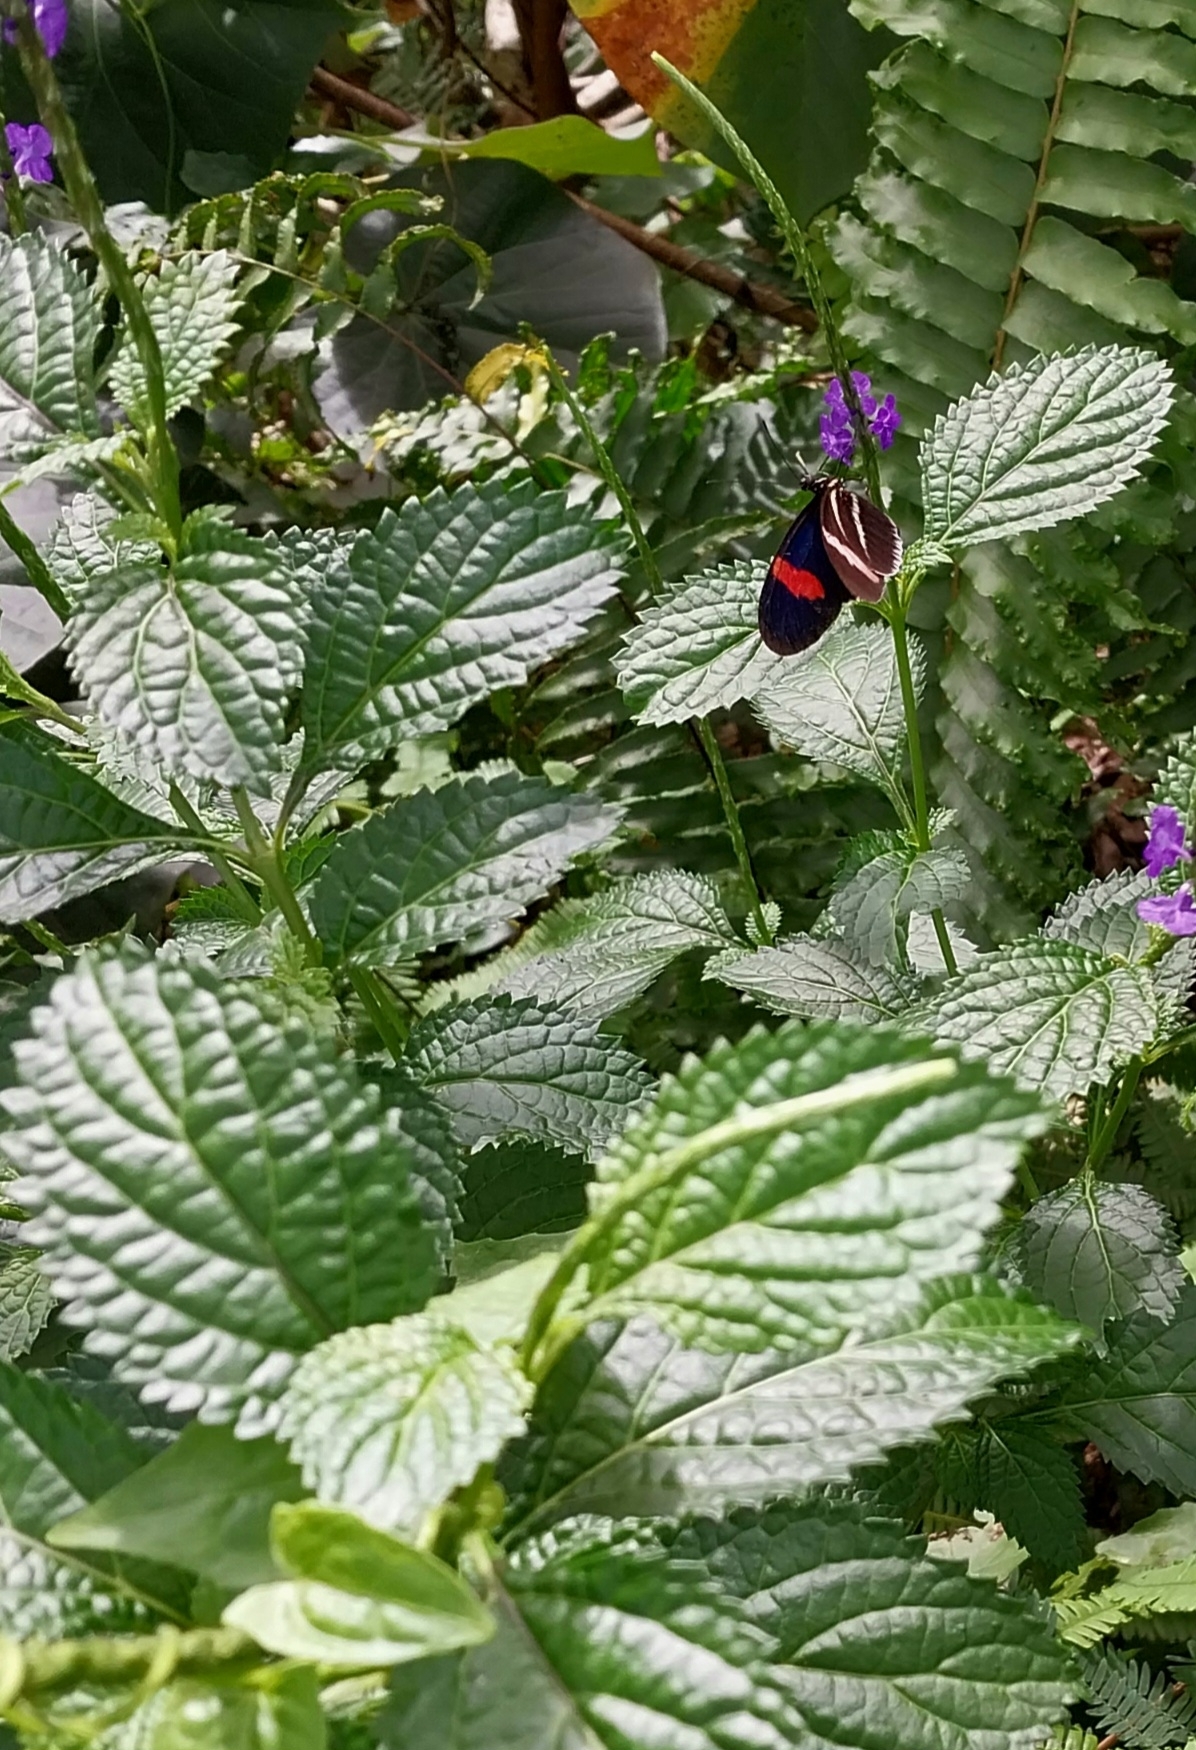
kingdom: Animalia
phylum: Arthropoda
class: Insecta
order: Lepidoptera
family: Nymphalidae
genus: Heliconius
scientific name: Heliconius erato
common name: Common patch longwing
